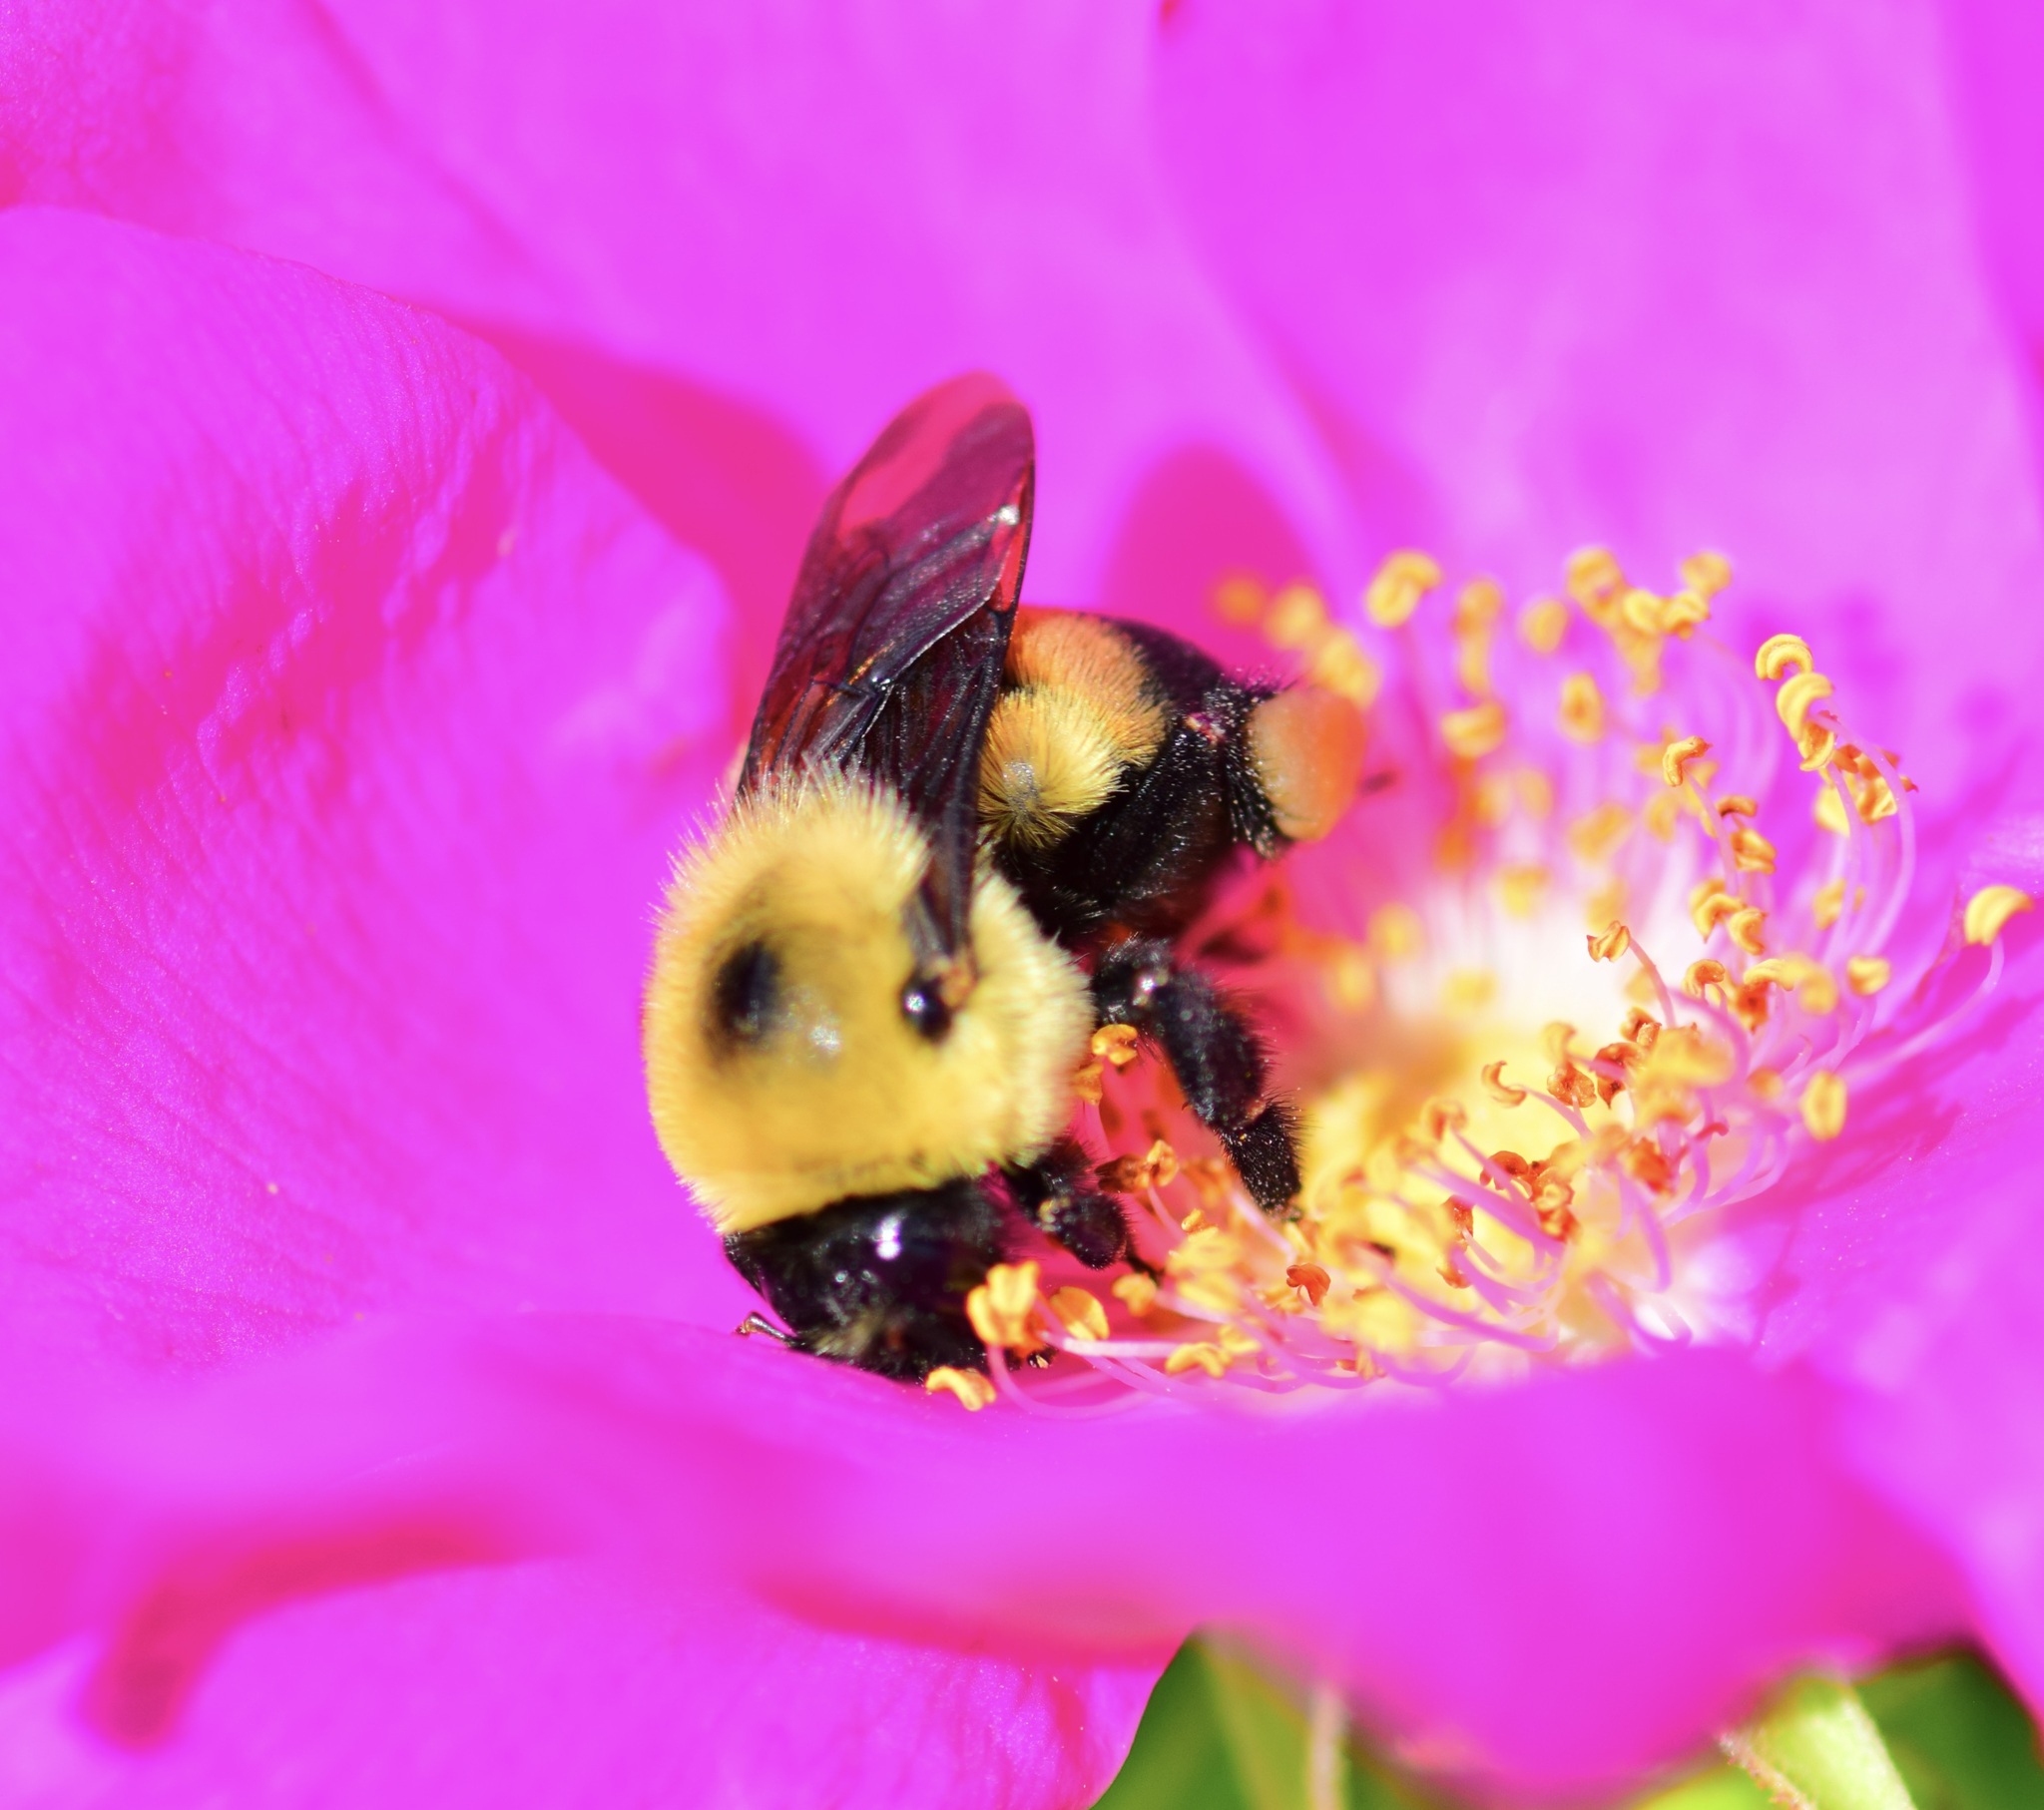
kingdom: Animalia
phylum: Arthropoda
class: Insecta
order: Hymenoptera
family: Apidae
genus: Bombus
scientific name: Bombus griseocollis
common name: Brown-belted bumble bee
